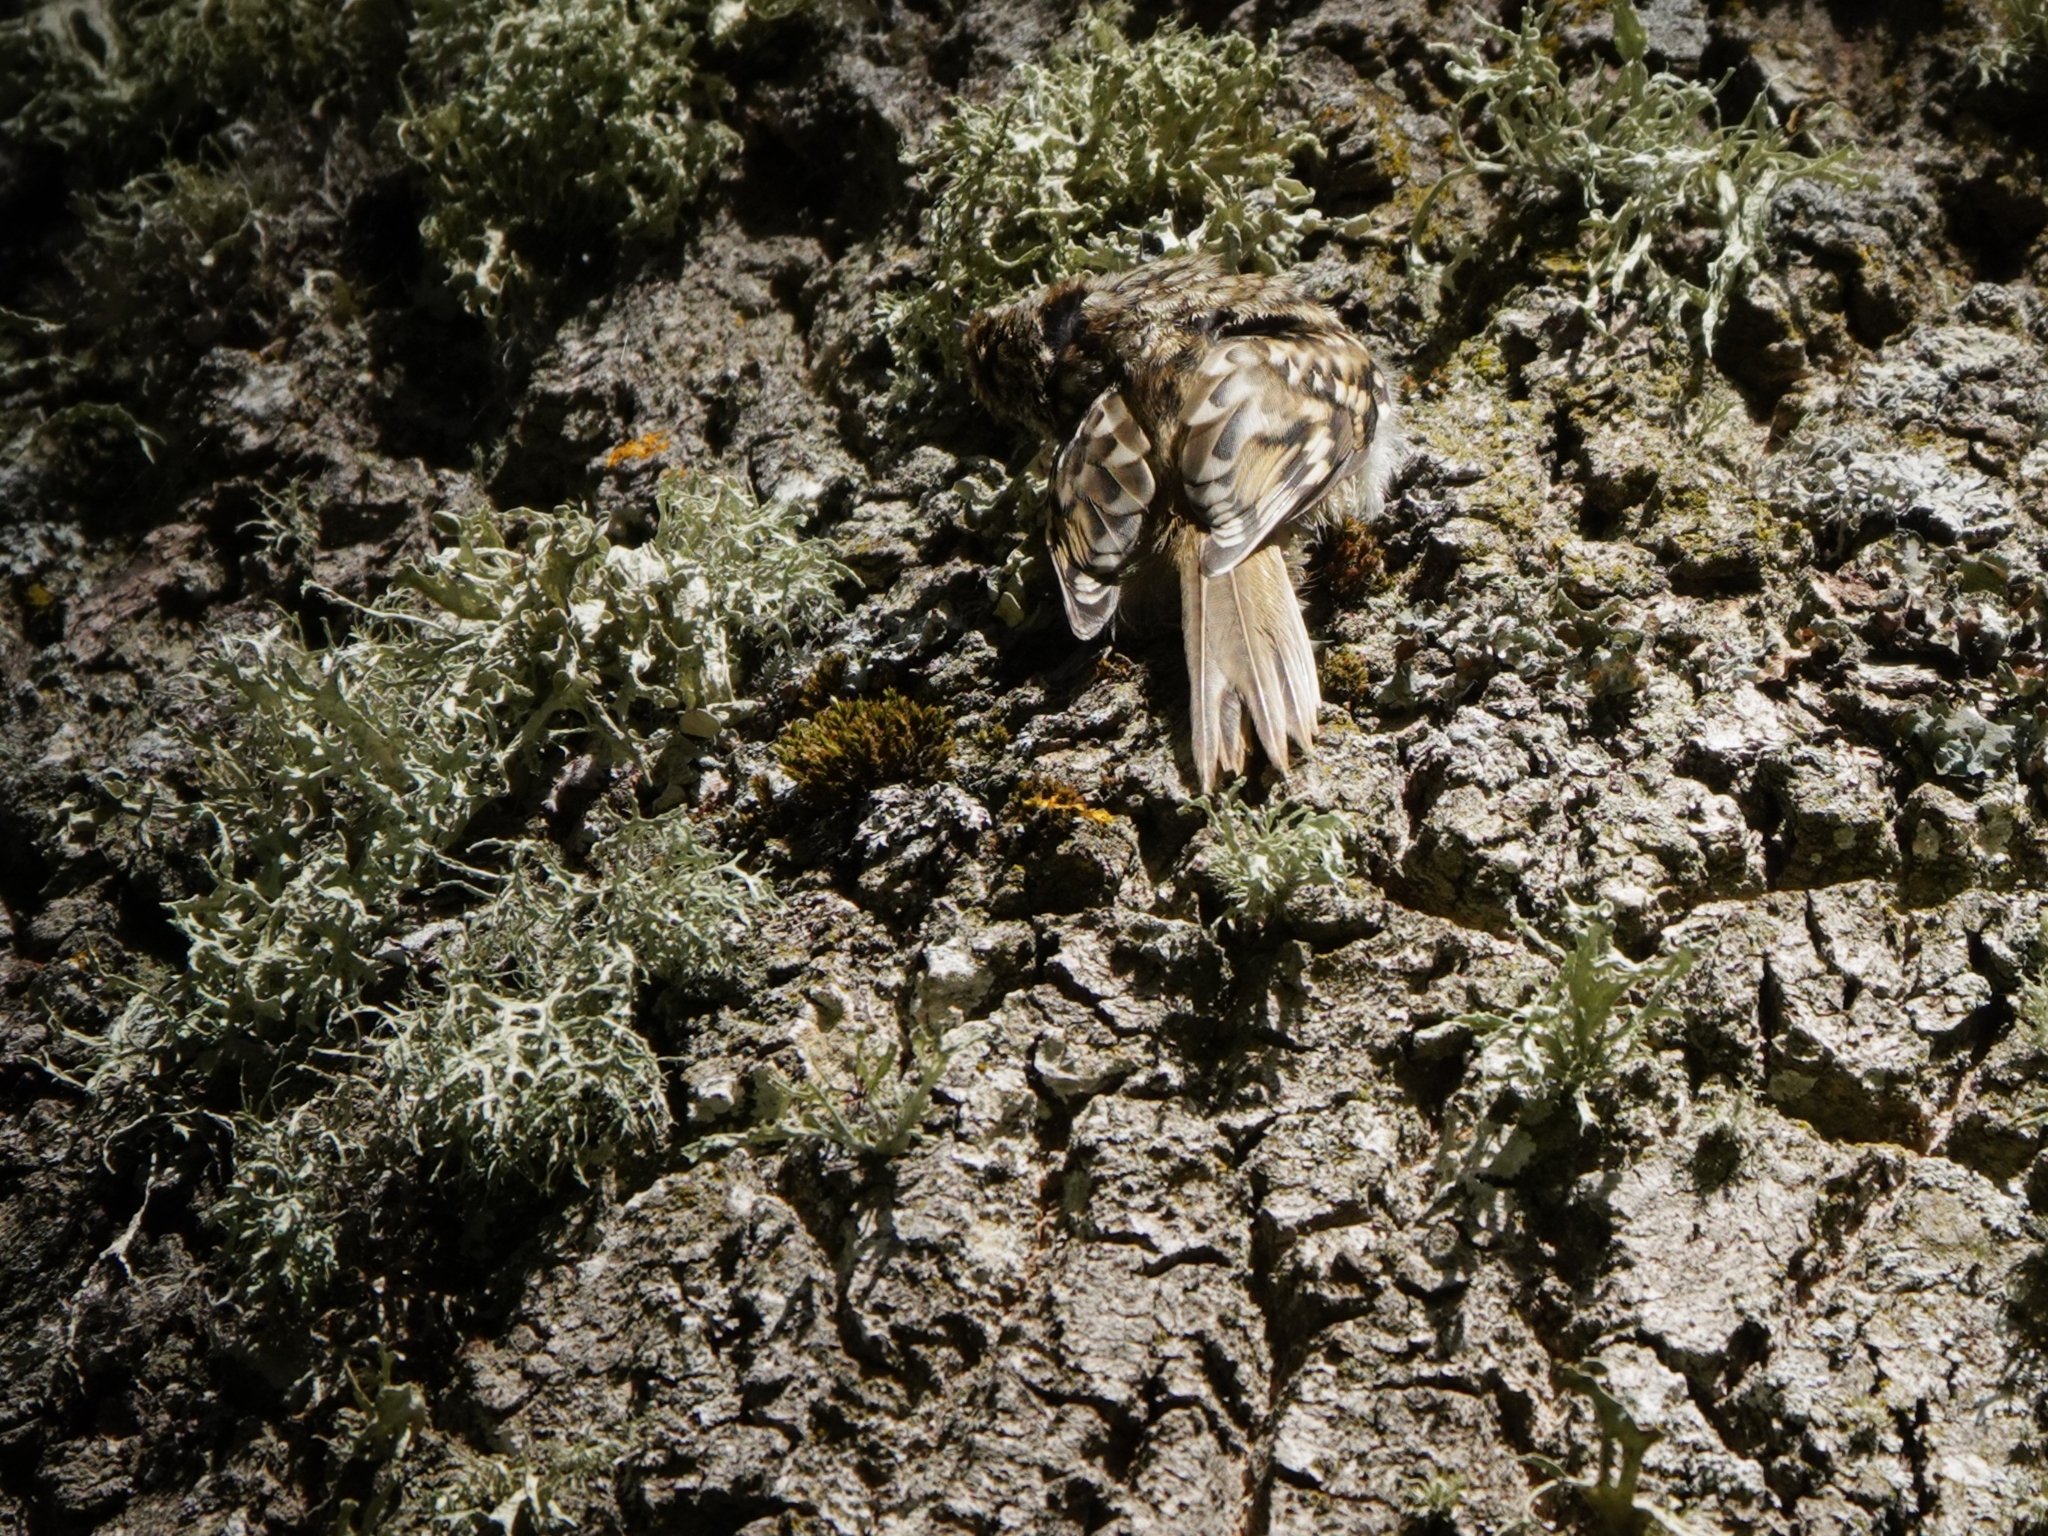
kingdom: Animalia
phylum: Chordata
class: Aves
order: Passeriformes
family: Certhiidae
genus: Certhia
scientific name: Certhia familiaris
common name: Eurasian treecreeper
